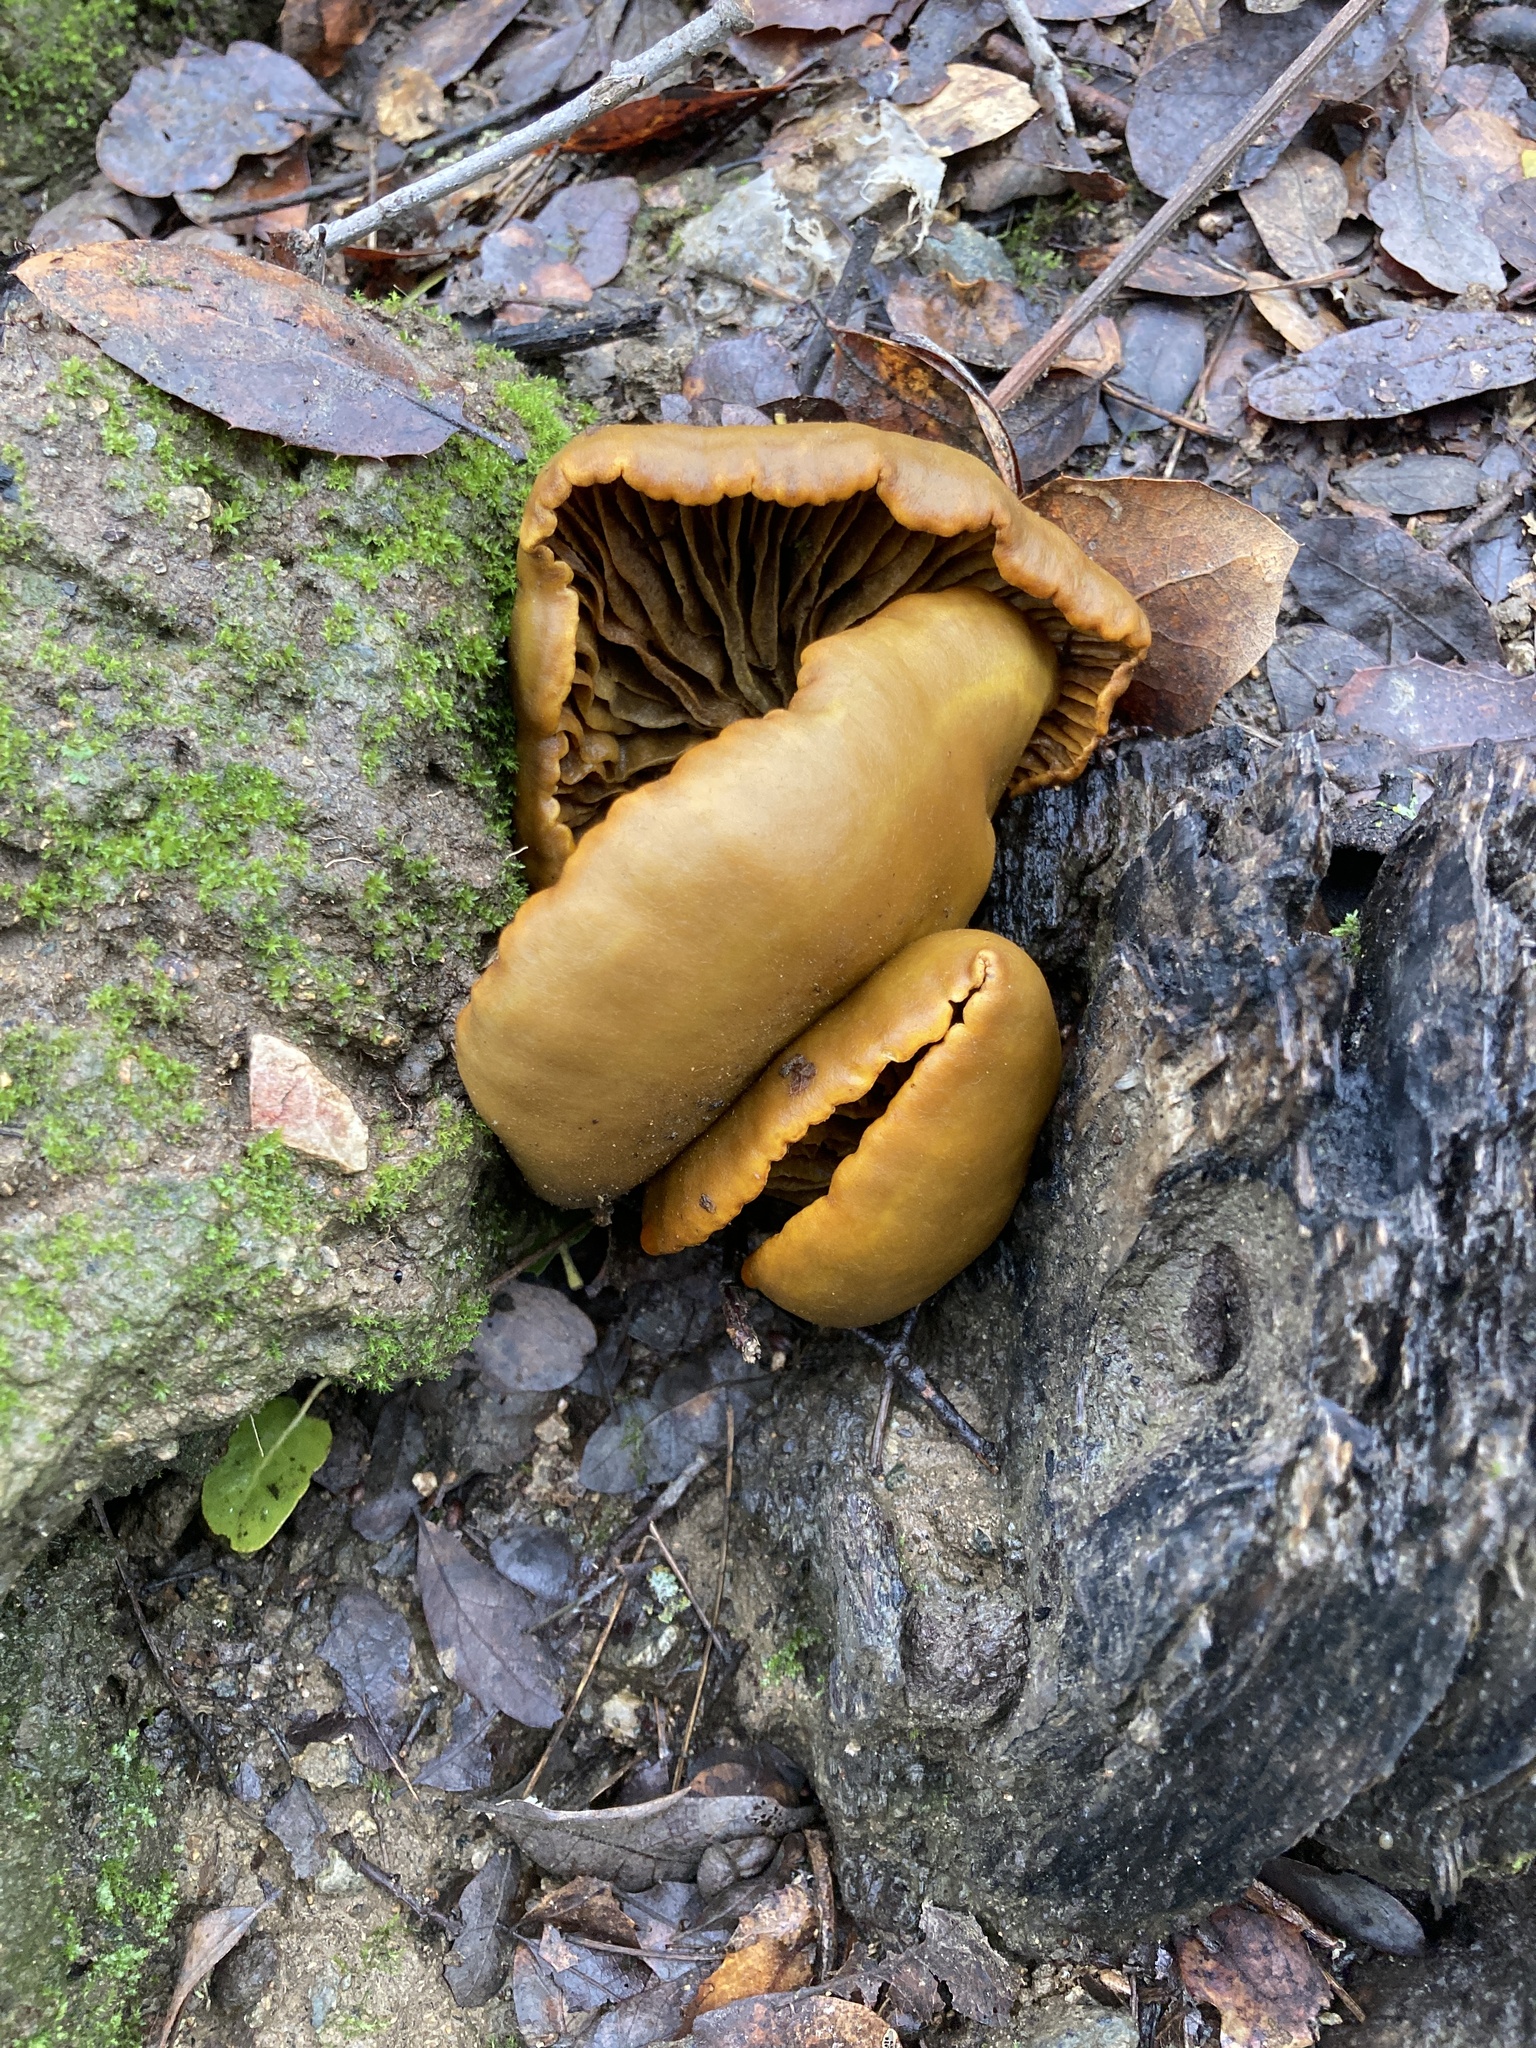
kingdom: Fungi
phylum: Basidiomycota
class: Agaricomycetes
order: Agaricales
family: Omphalotaceae
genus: Omphalotus
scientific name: Omphalotus olivascens
